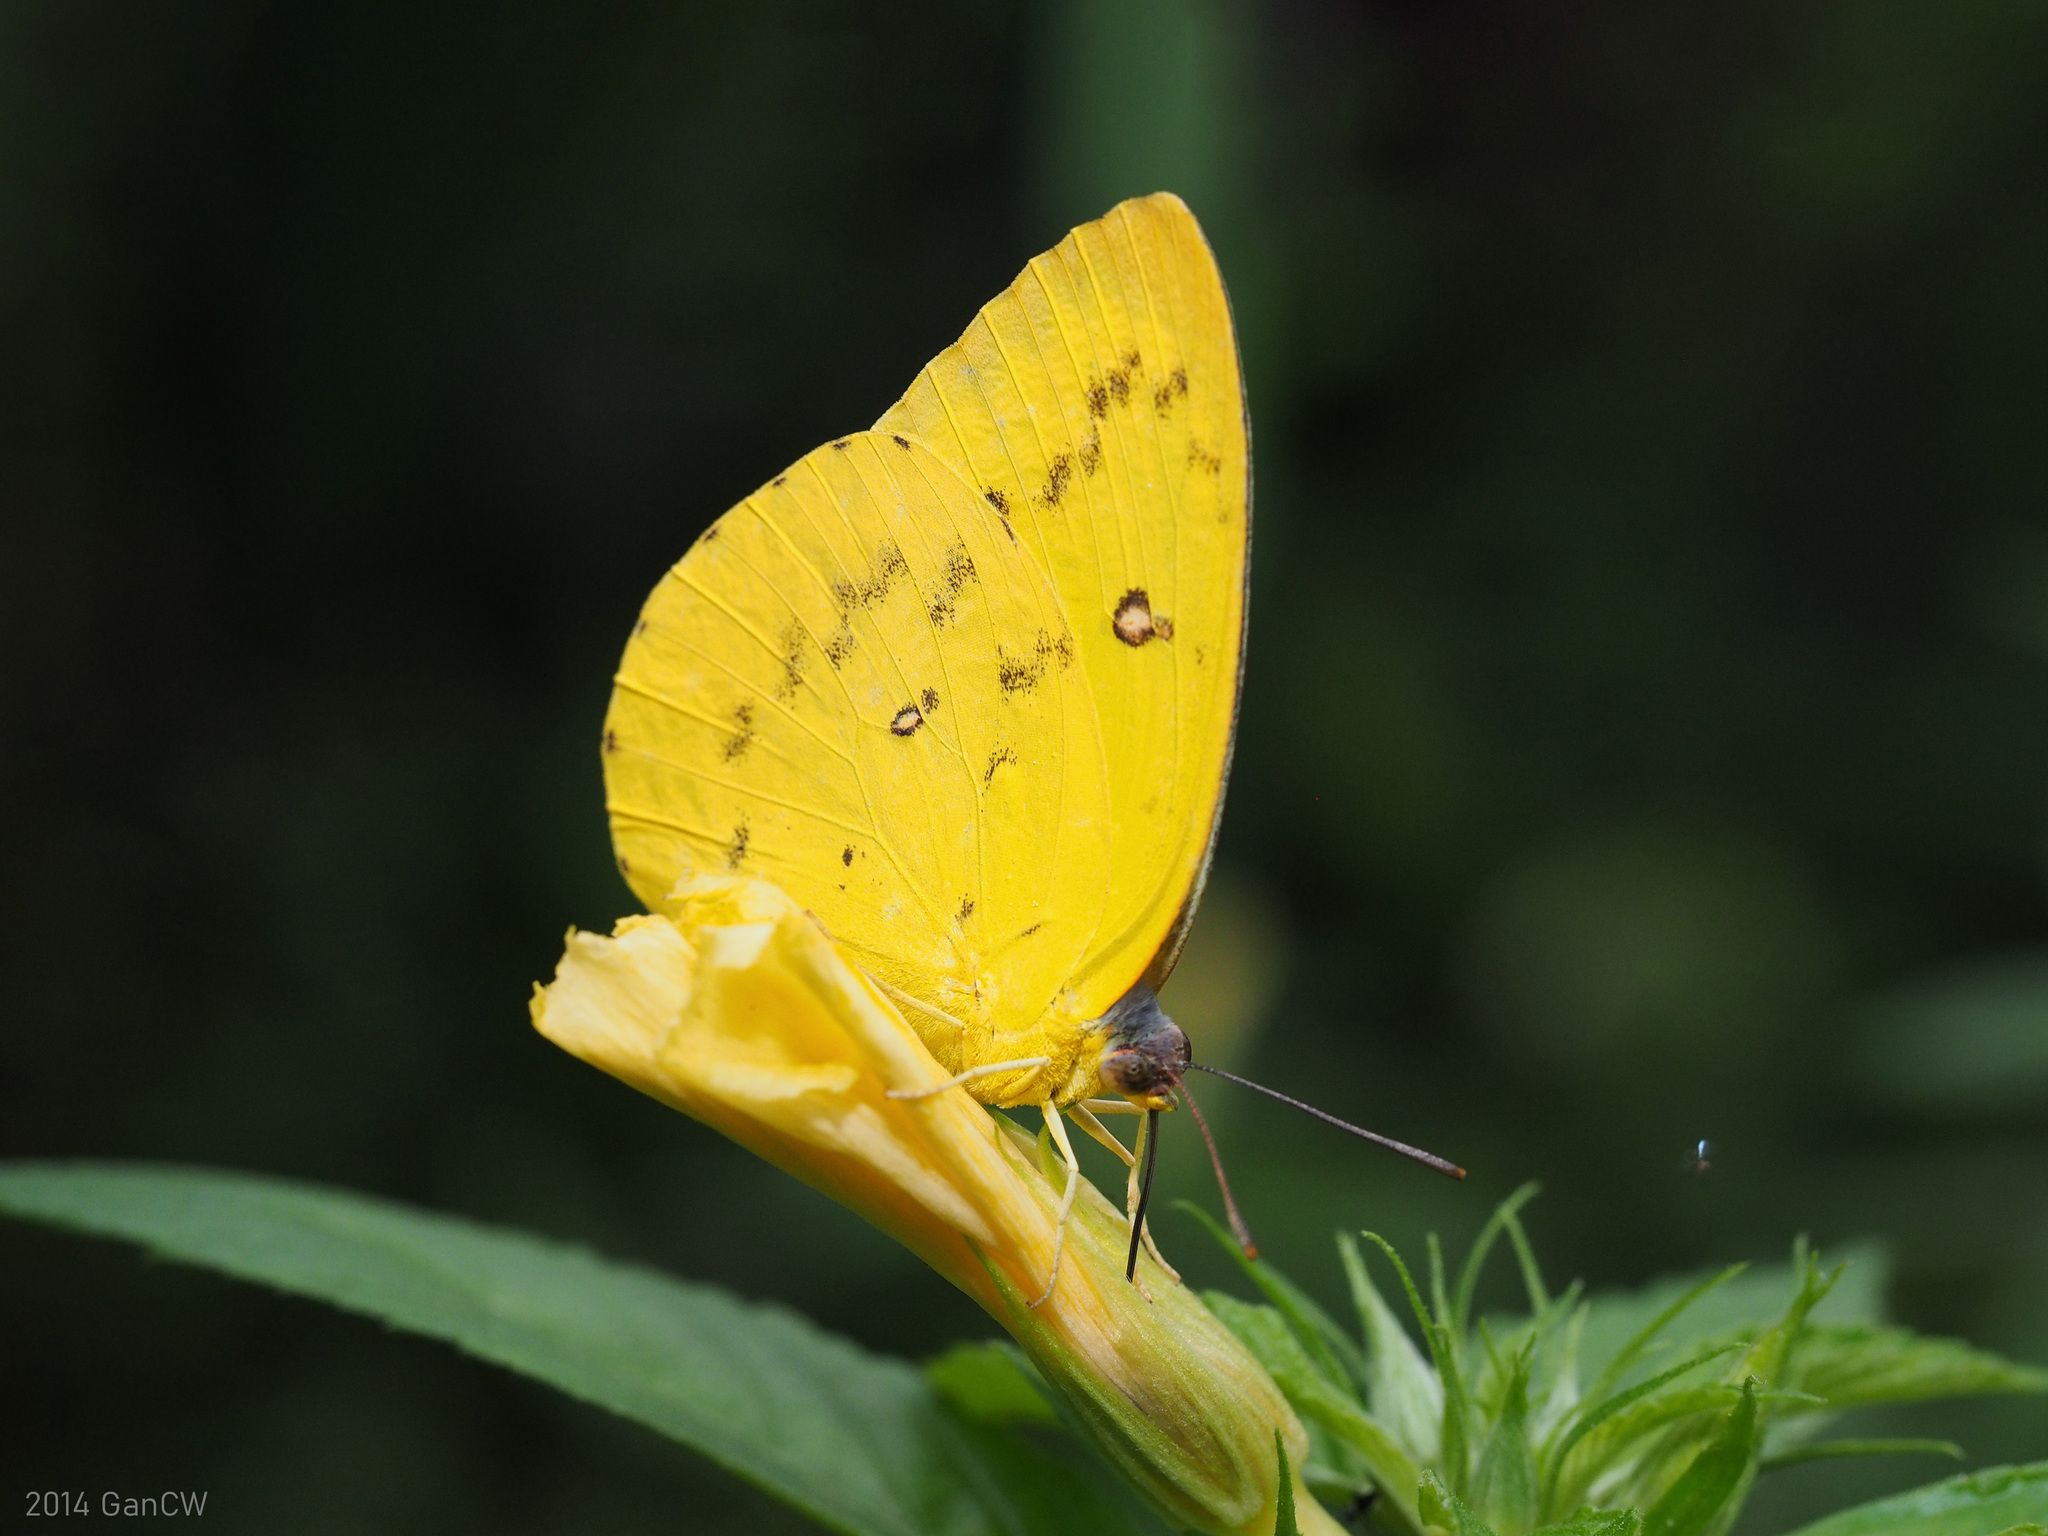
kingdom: Animalia
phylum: Arthropoda
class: Insecta
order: Lepidoptera
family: Pieridae
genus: Catopsilia
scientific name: Catopsilia scylla
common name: Orange emigrant
